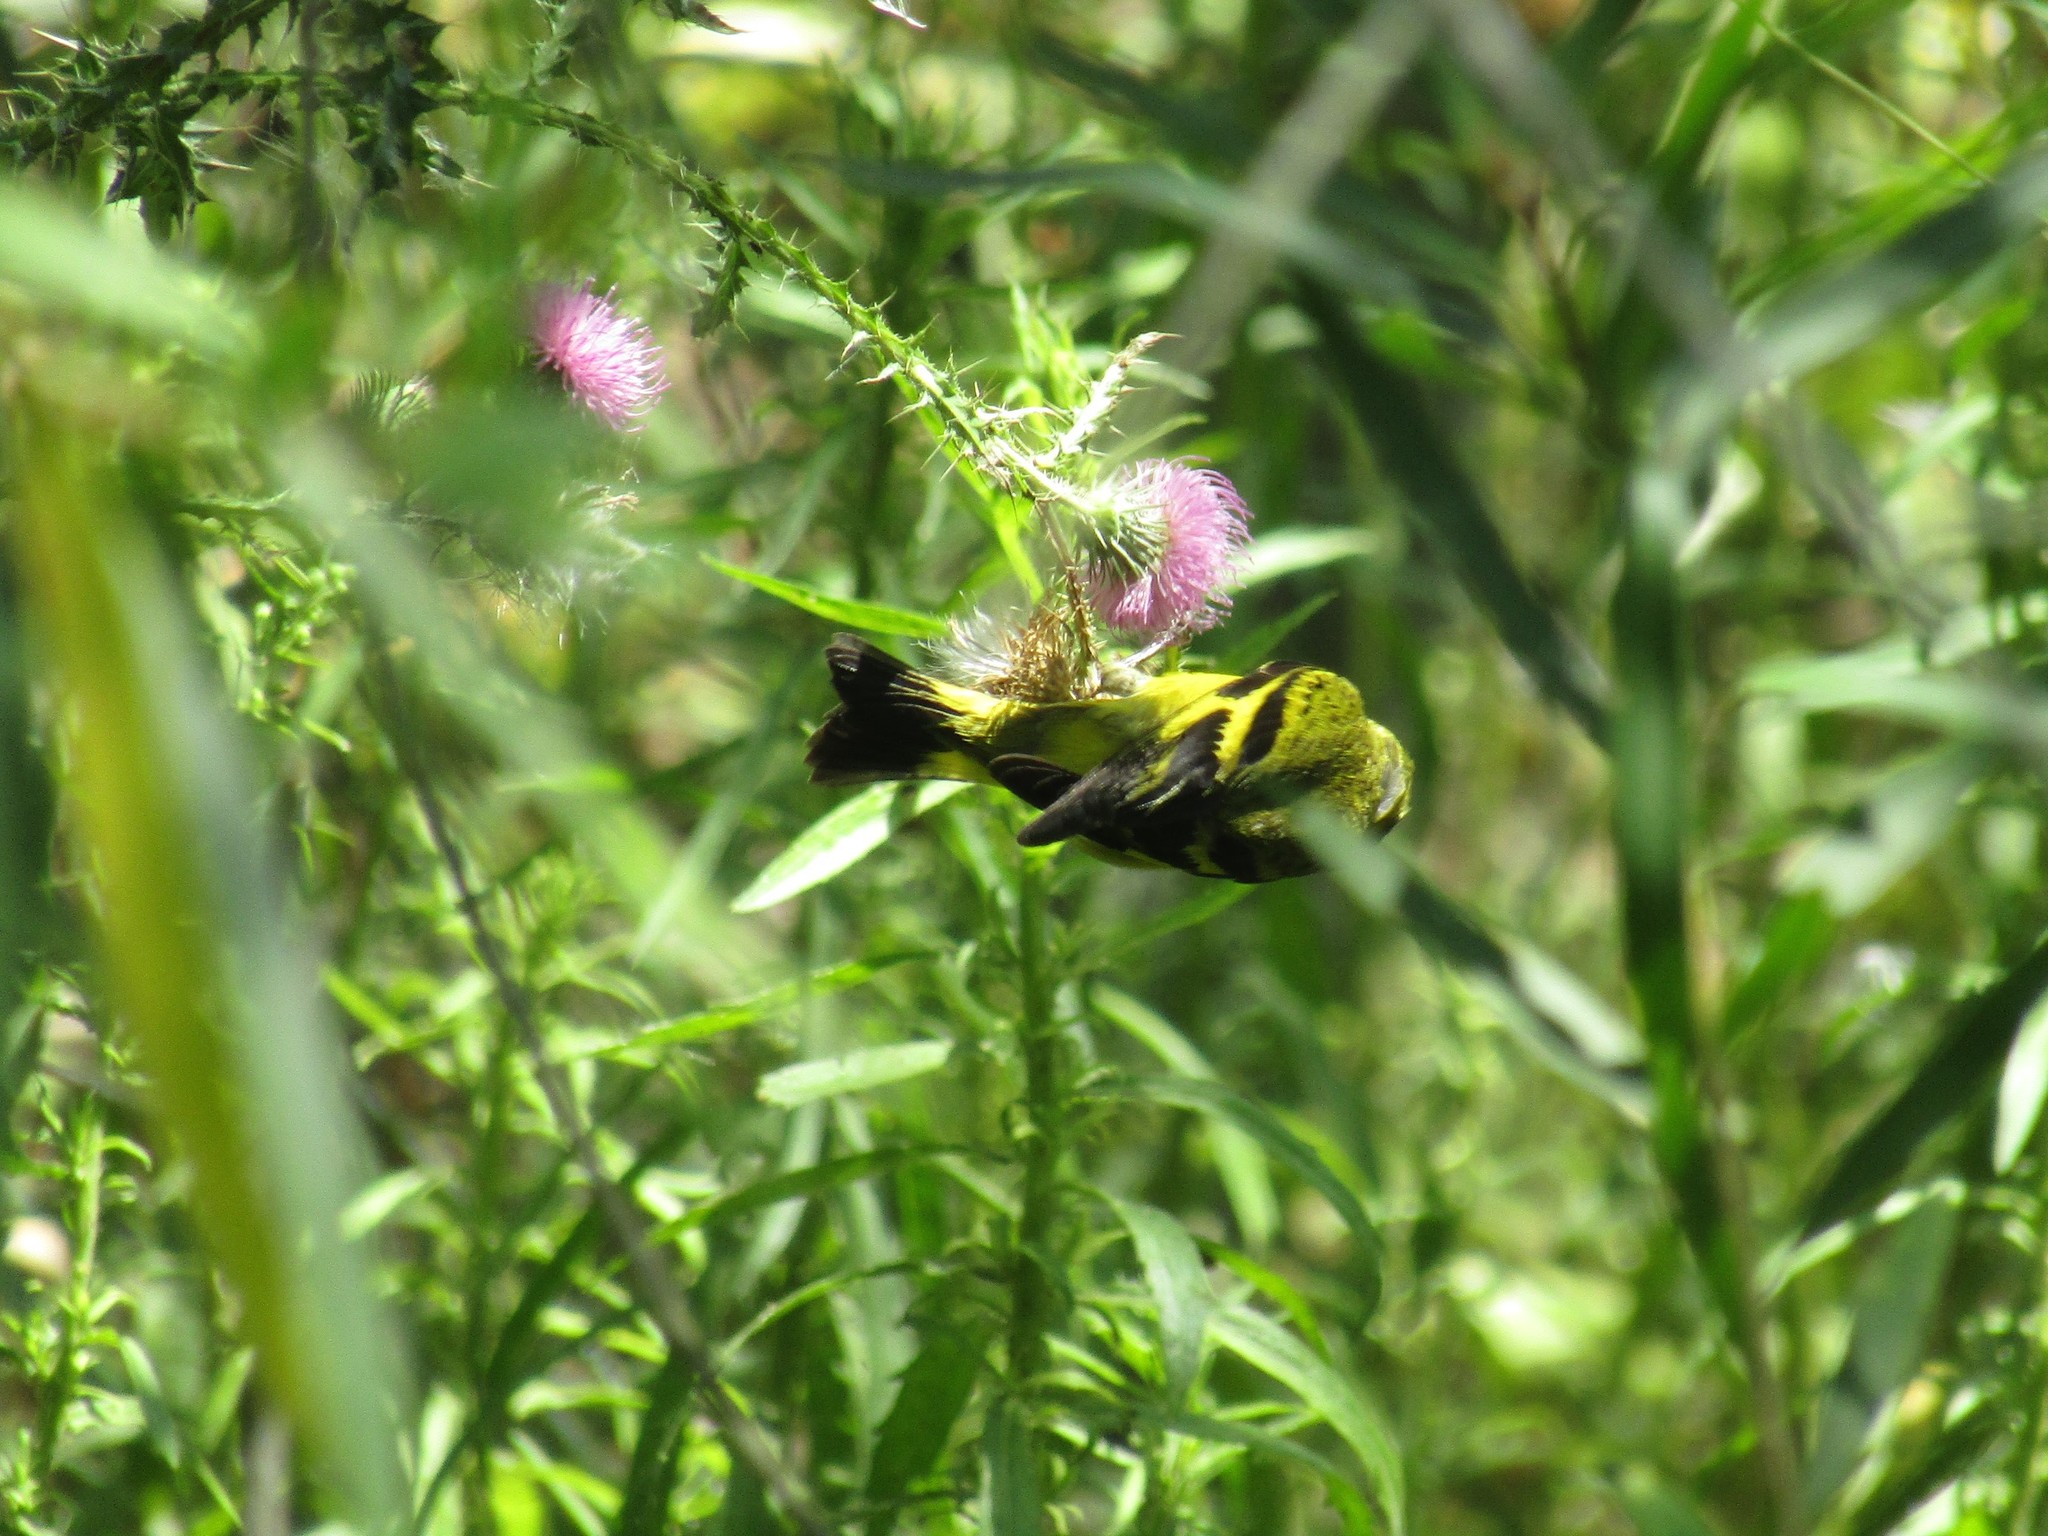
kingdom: Animalia
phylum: Chordata
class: Aves
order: Passeriformes
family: Fringillidae
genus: Spinus
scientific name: Spinus magellanicus
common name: Hooded siskin
